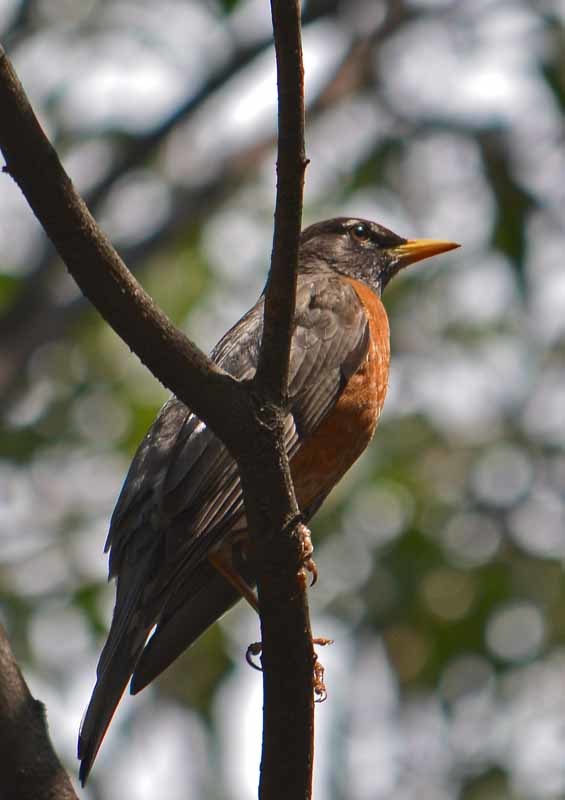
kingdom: Animalia
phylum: Chordata
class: Aves
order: Passeriformes
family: Turdidae
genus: Turdus
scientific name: Turdus migratorius
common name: American robin
